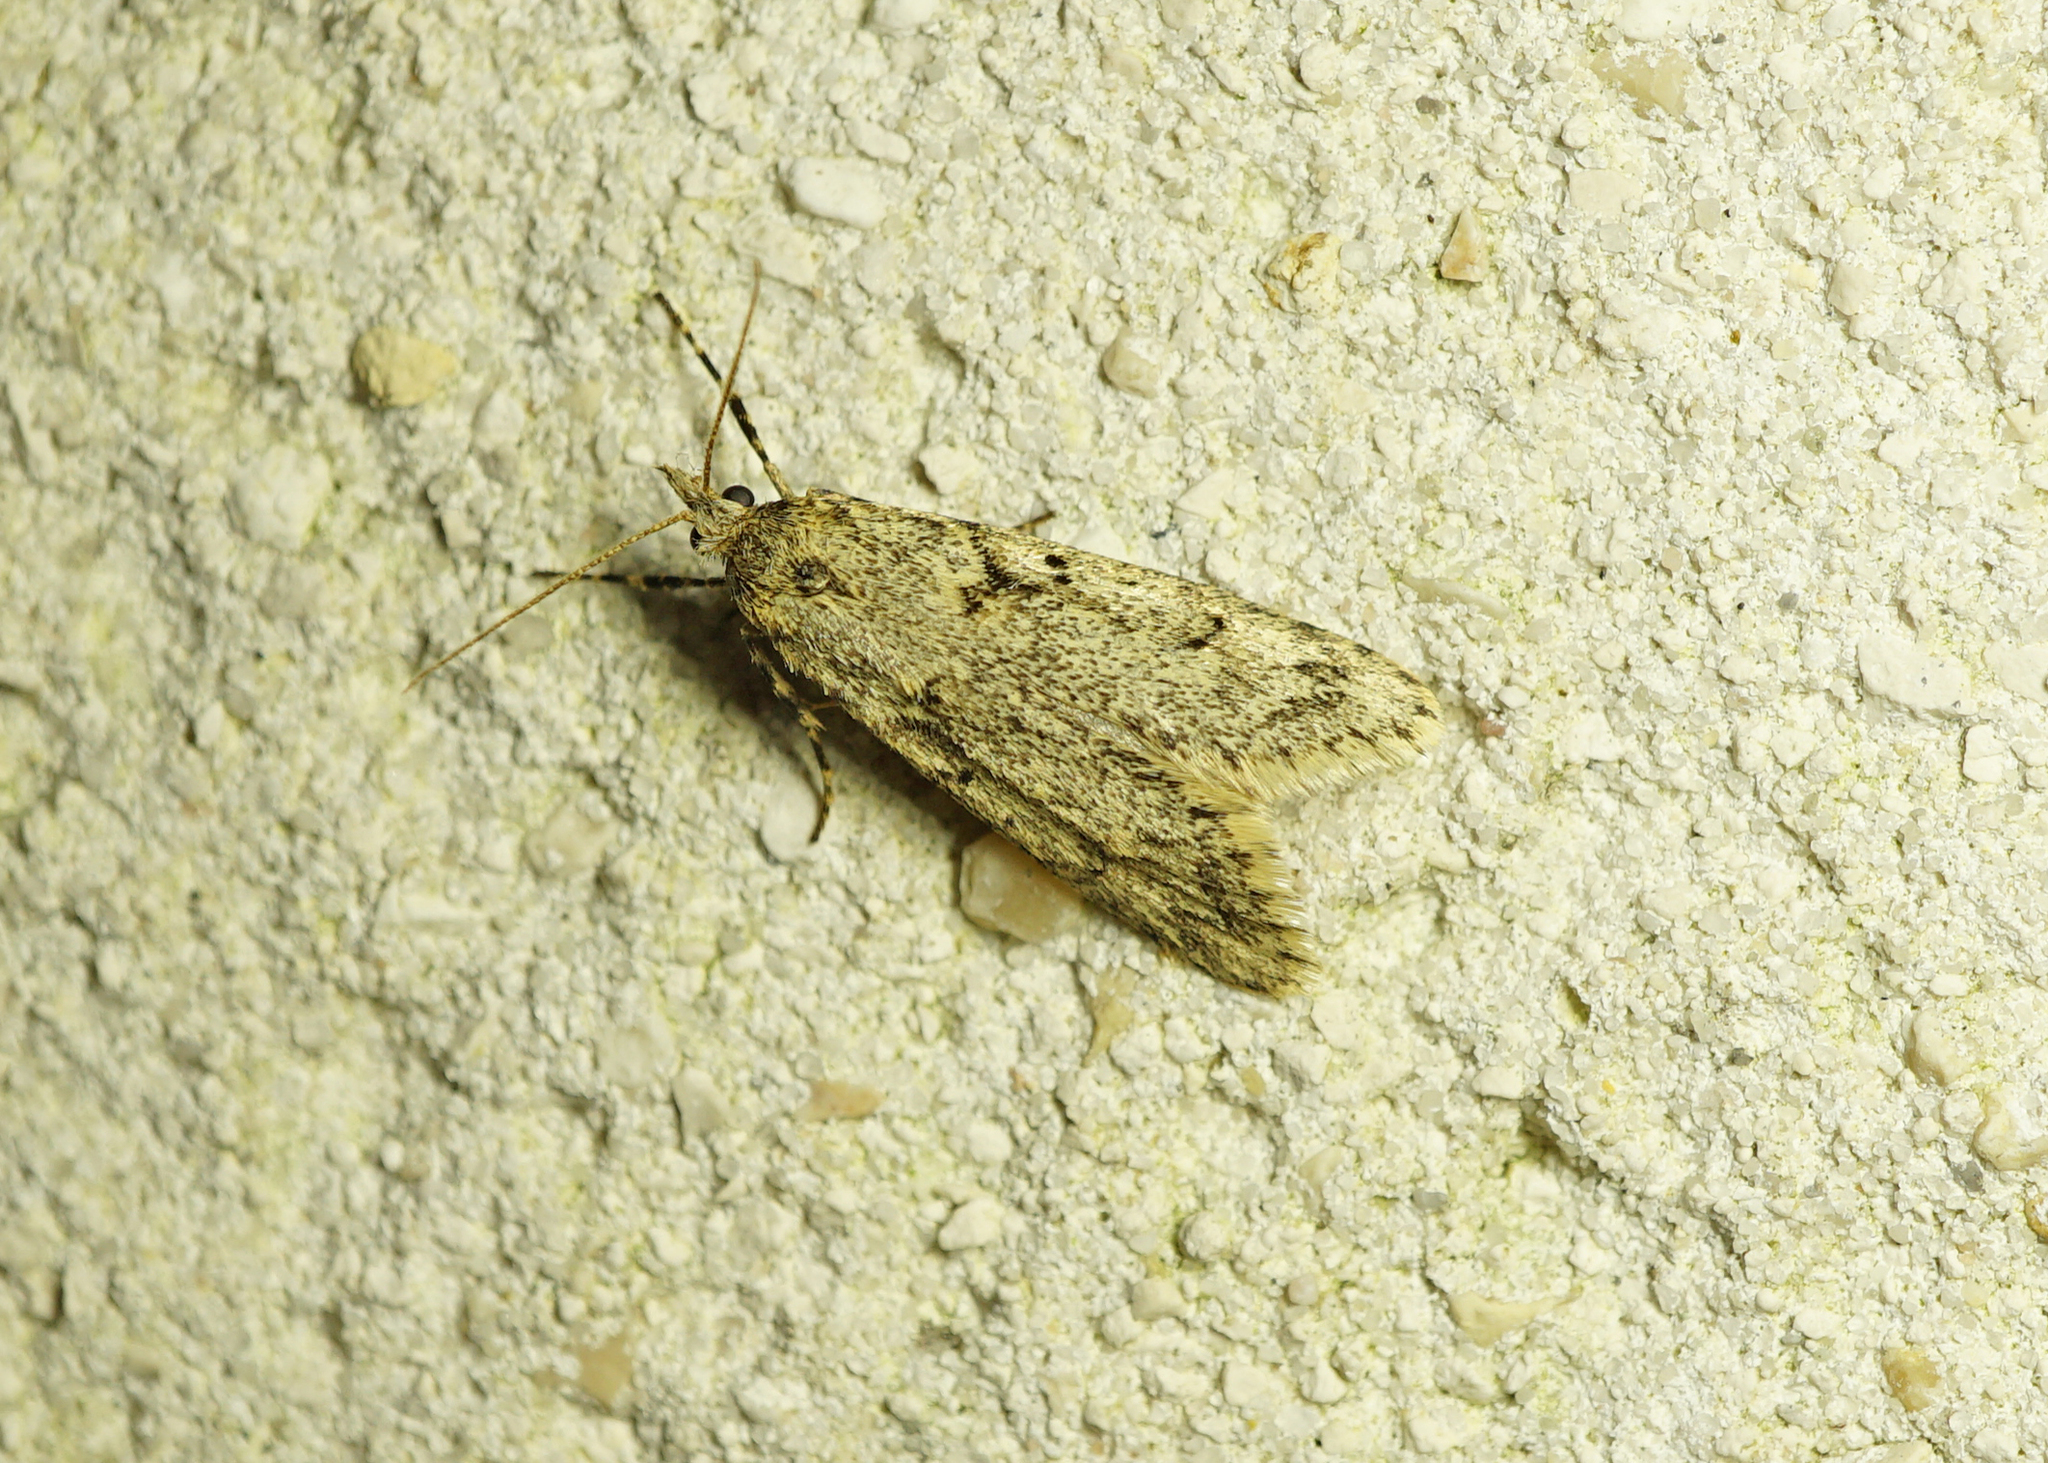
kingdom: Animalia
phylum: Arthropoda
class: Insecta
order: Lepidoptera
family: Lypusidae
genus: Diurnea
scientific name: Diurnea fagella
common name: March tubic
